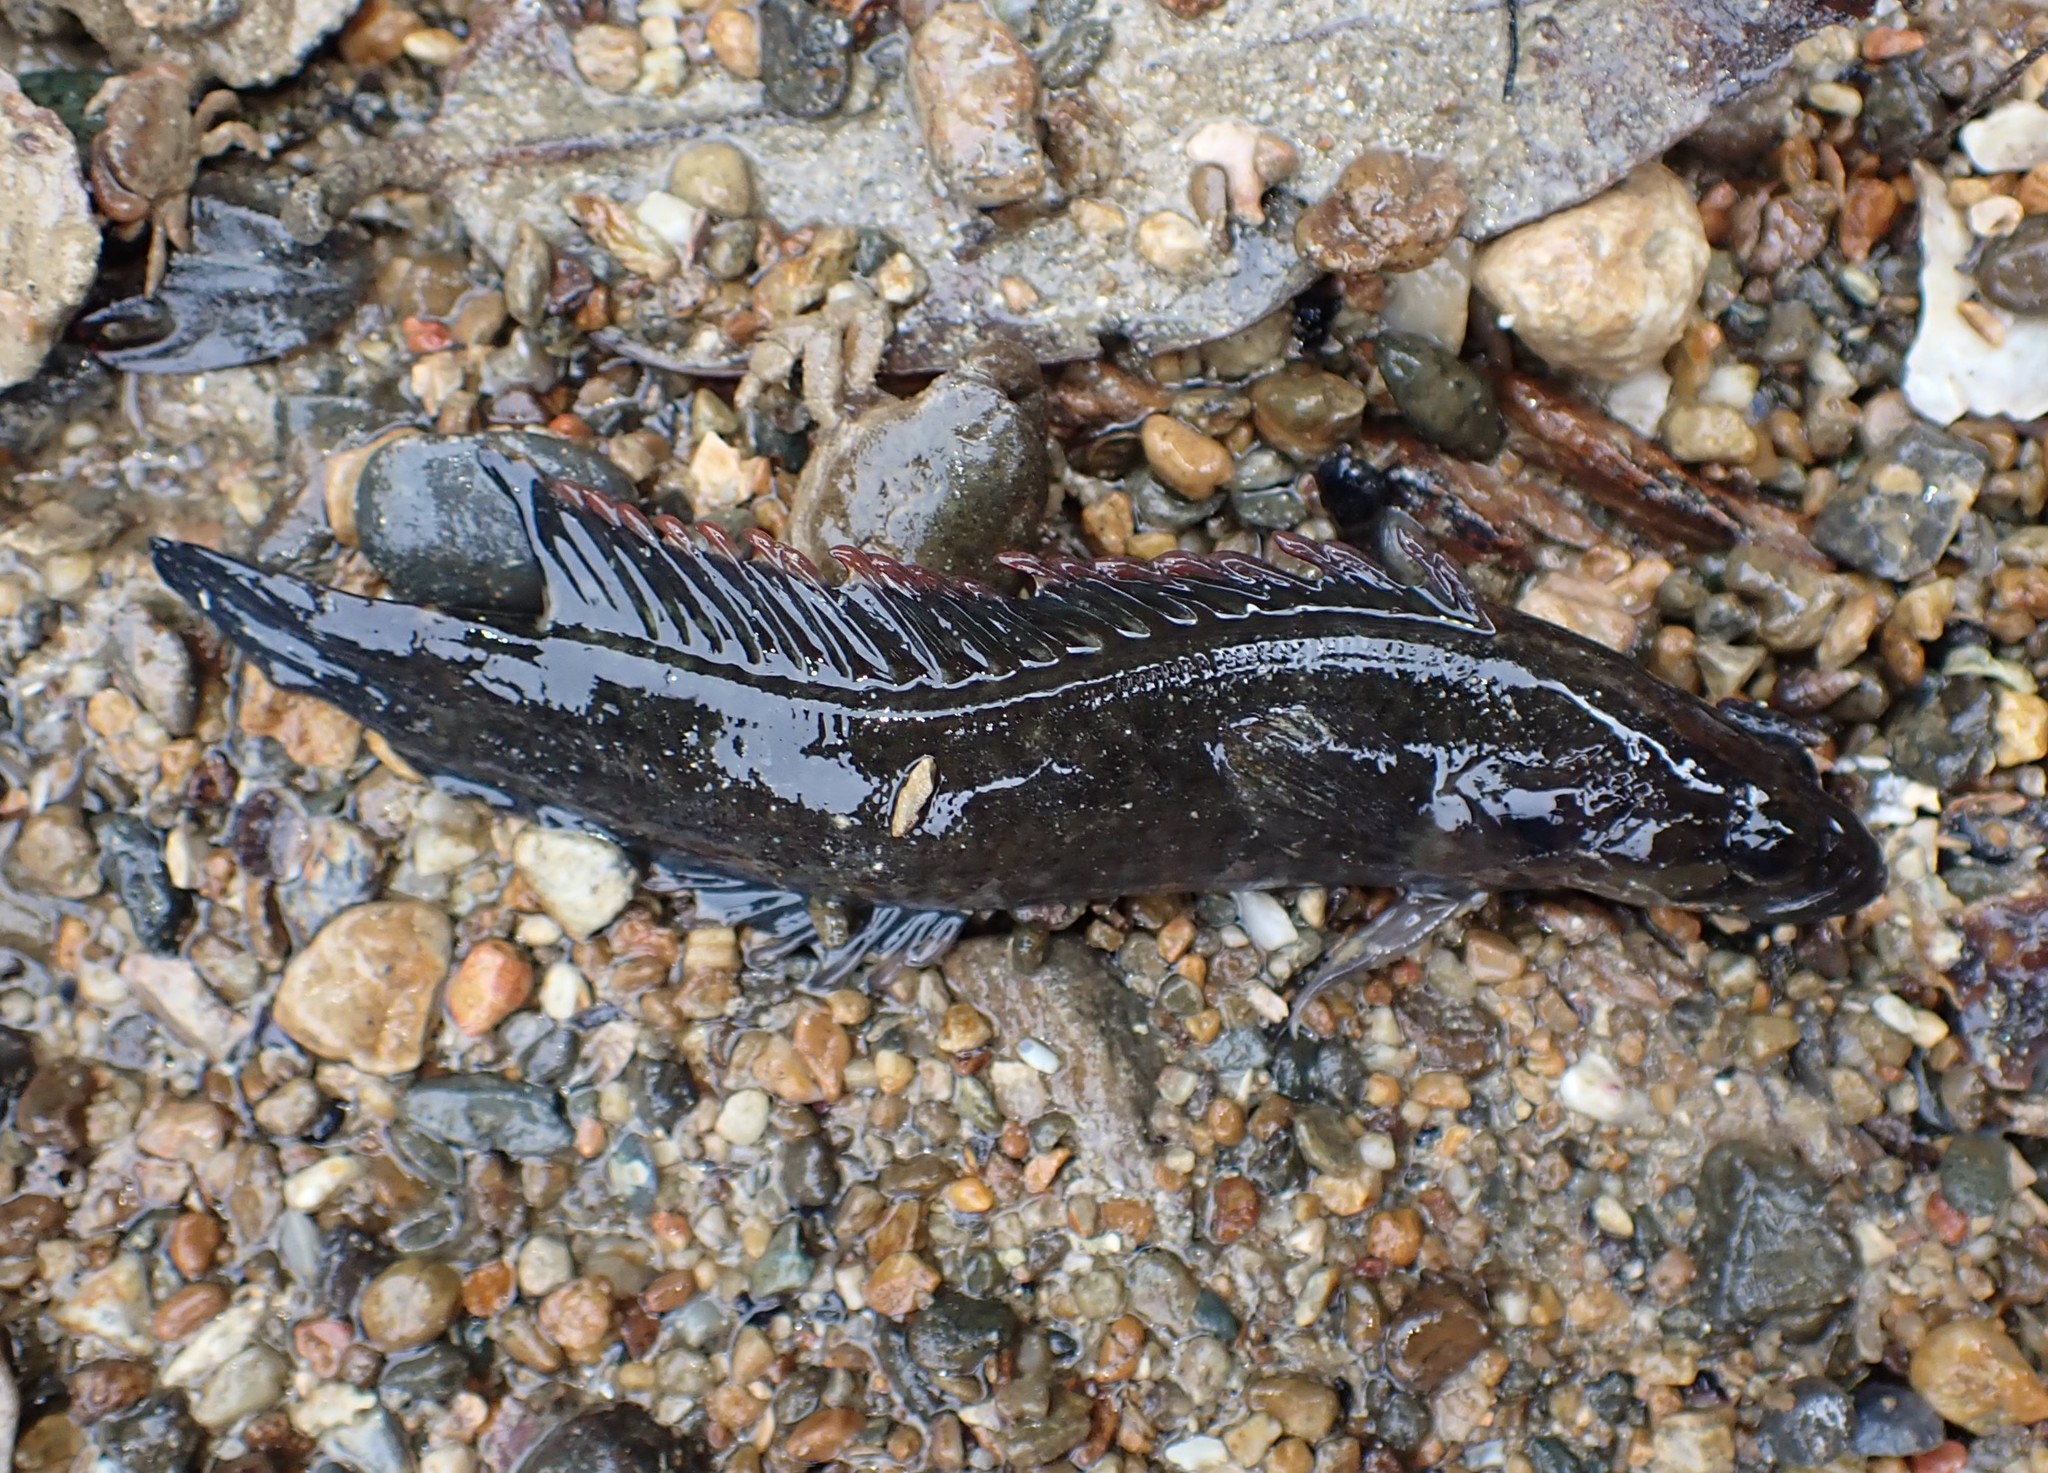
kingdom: Animalia
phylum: Chordata
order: Perciformes
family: Plesiopidae
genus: Acanthoclinus
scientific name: Acanthoclinus fuscus
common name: Olive rockfish
